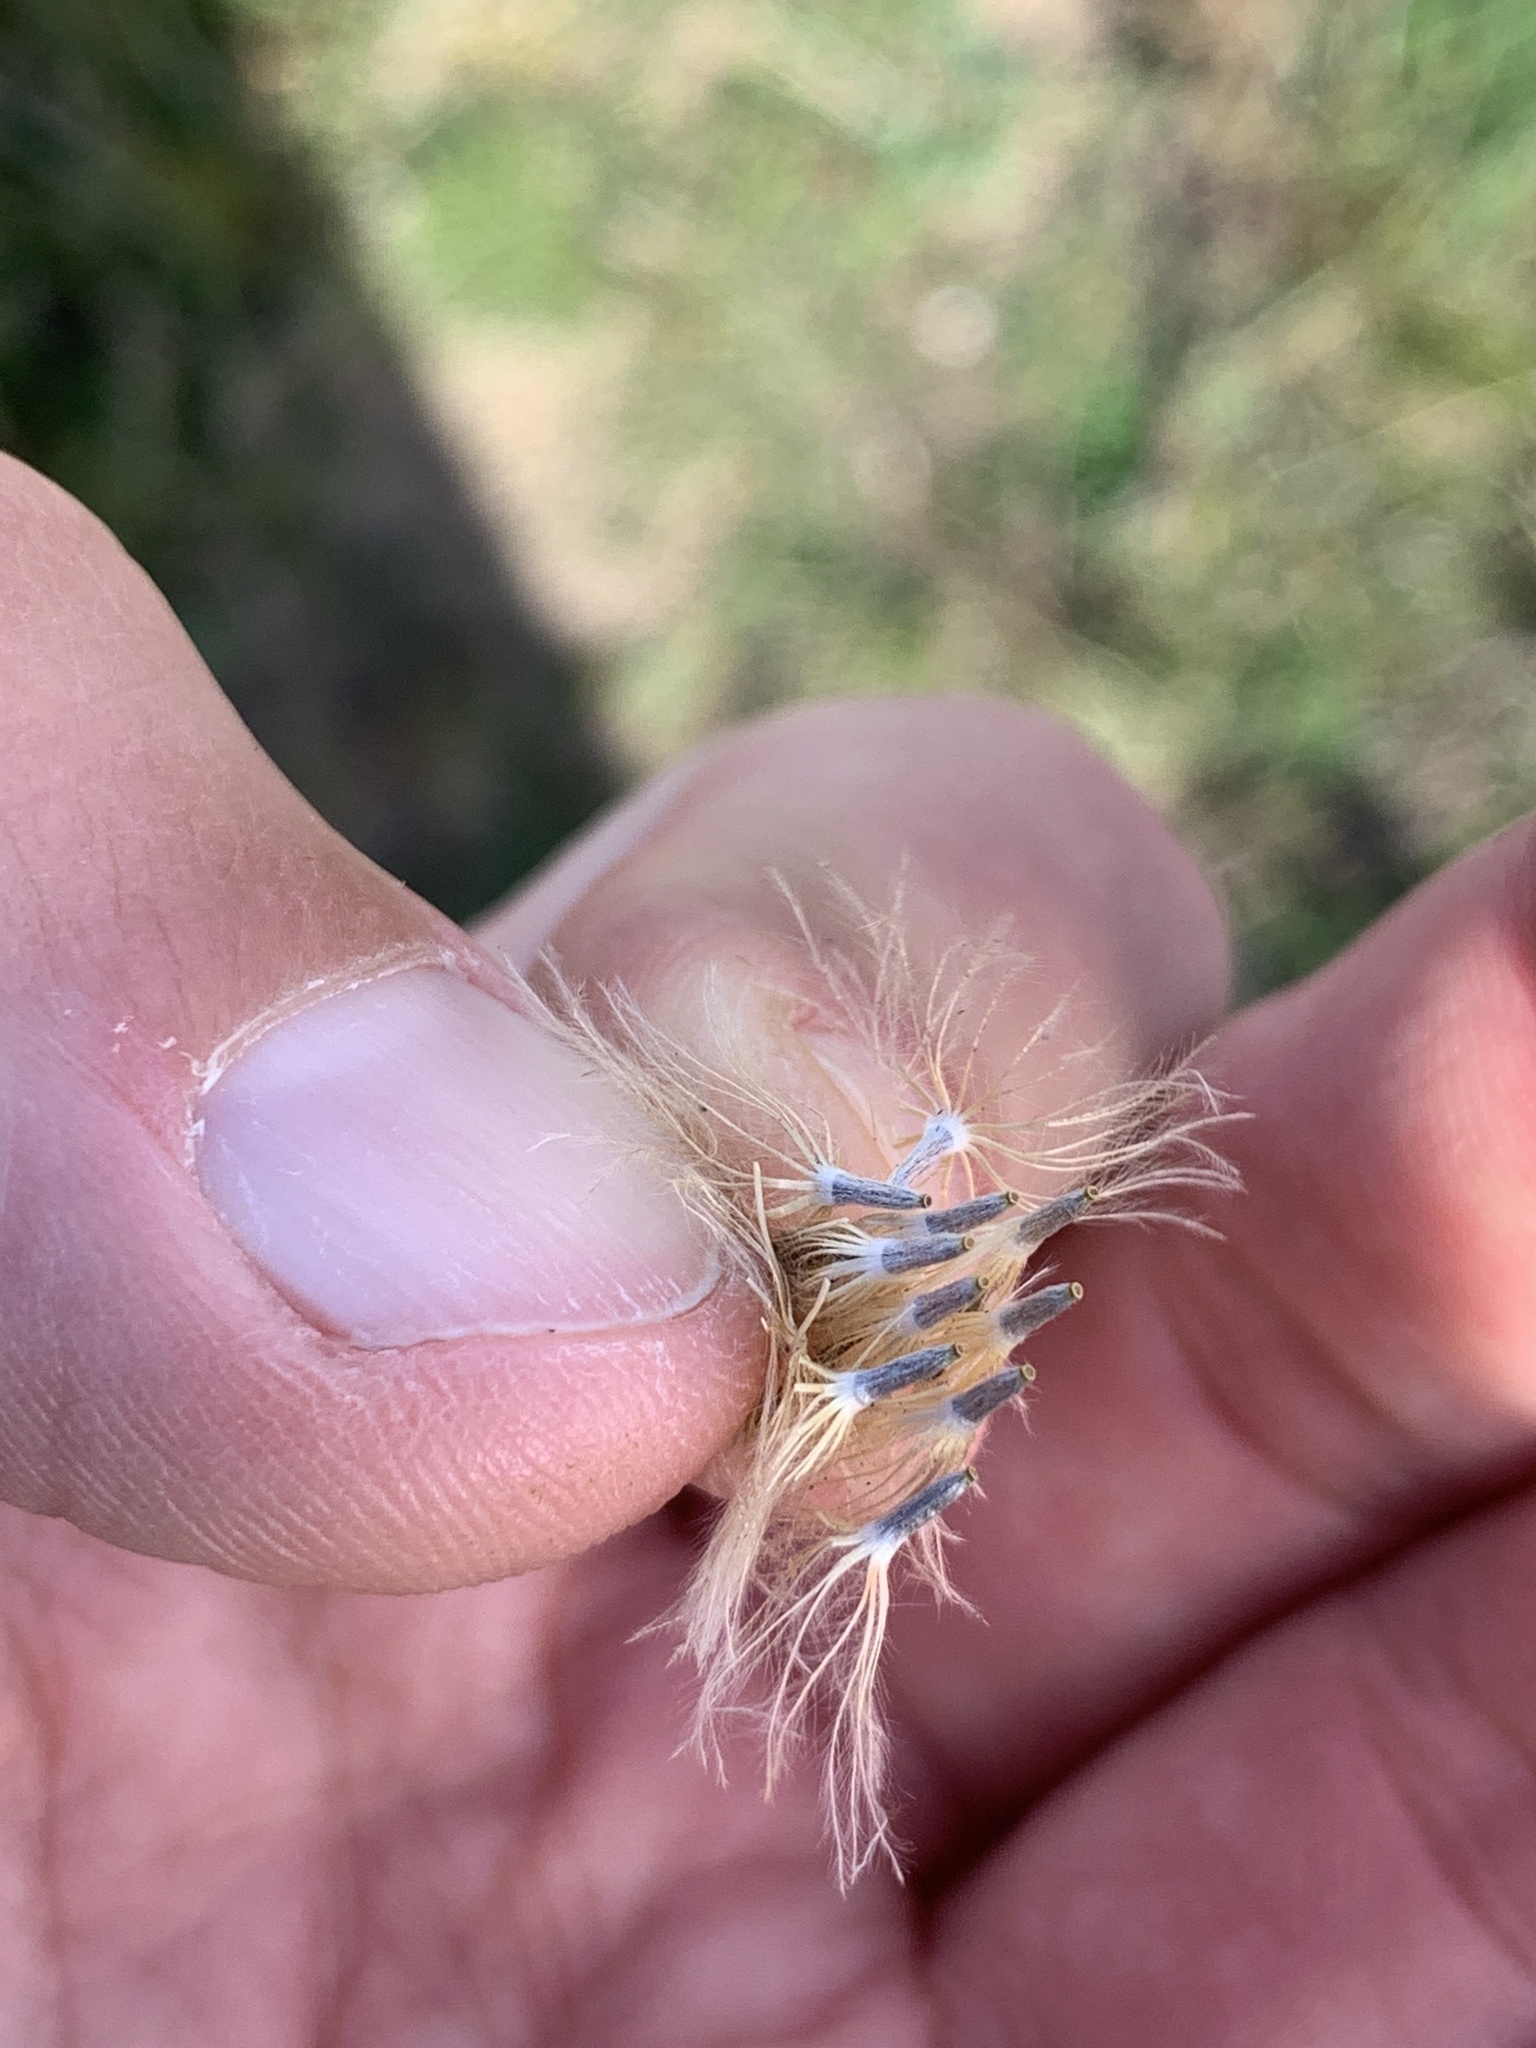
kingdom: Plantae
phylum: Tracheophyta
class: Magnoliopsida
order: Asterales
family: Asteraceae
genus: Carlina
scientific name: Carlina vulgaris
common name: Carline thistle
